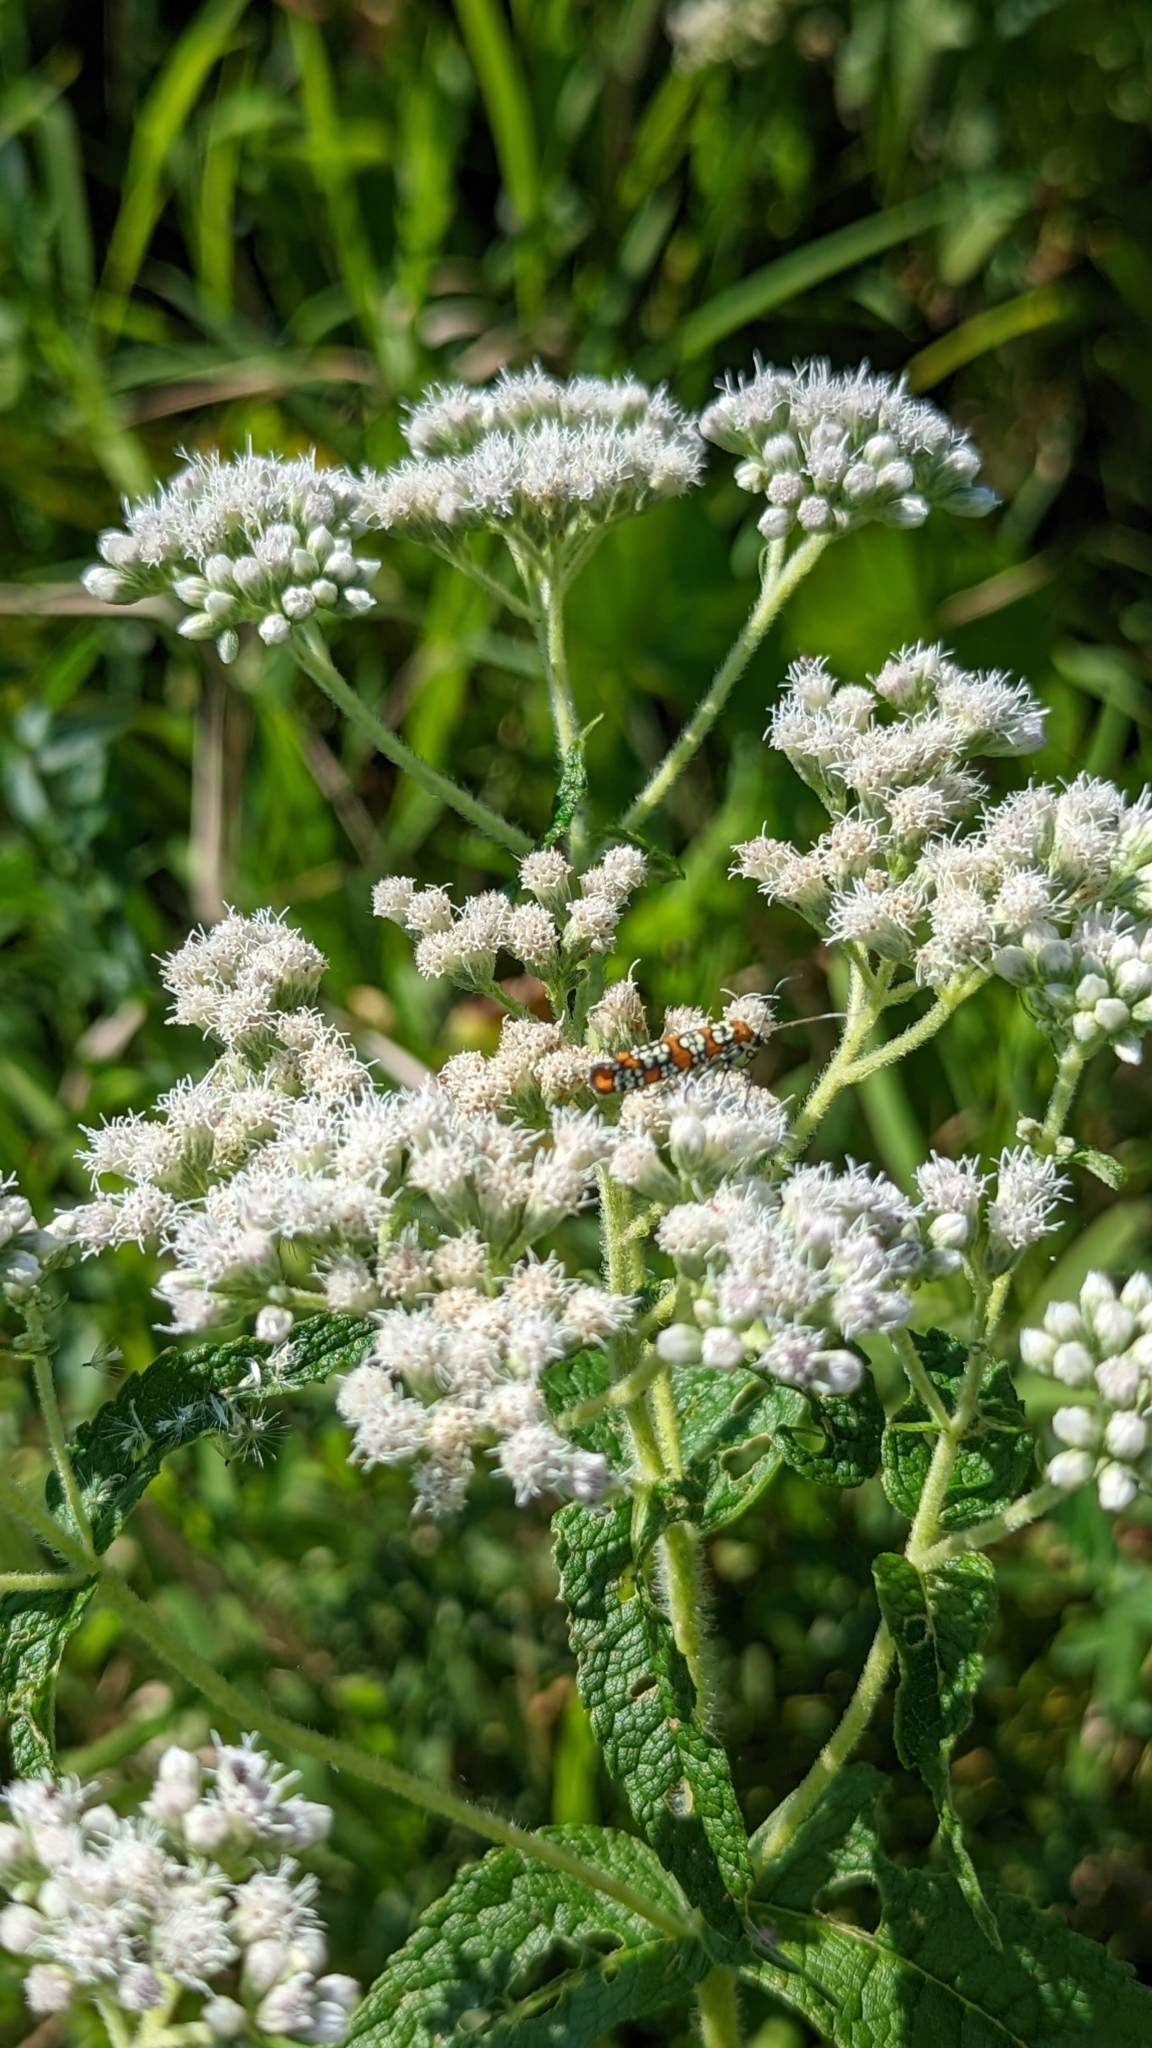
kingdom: Animalia
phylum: Arthropoda
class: Insecta
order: Lepidoptera
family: Attevidae
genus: Atteva
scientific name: Atteva punctella
